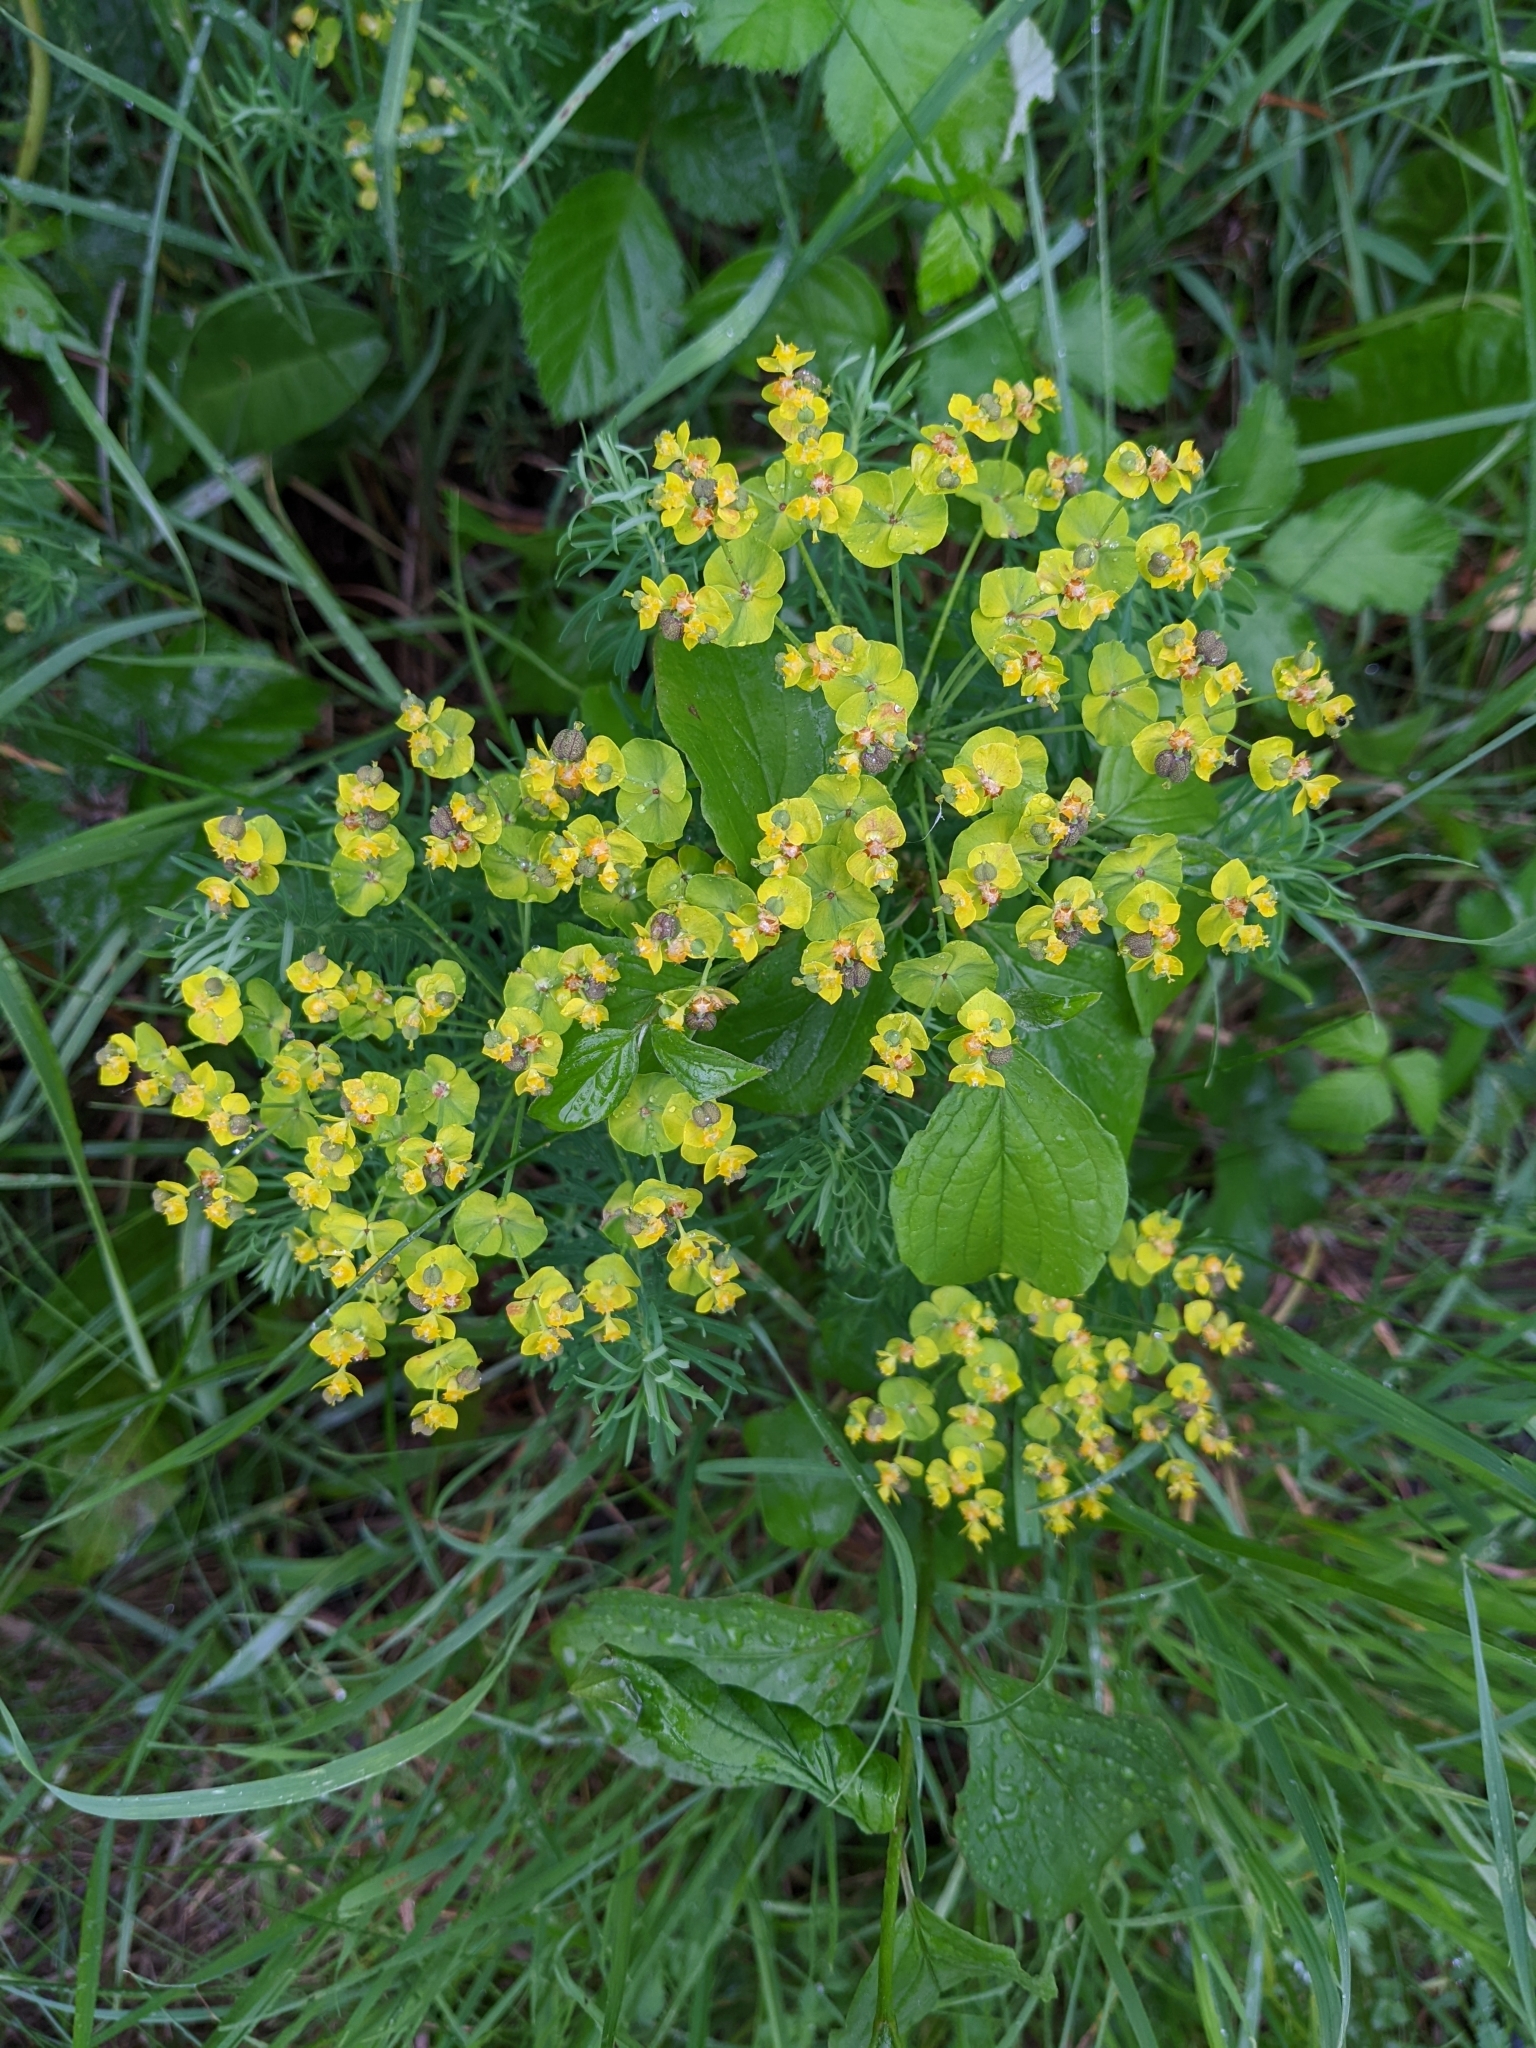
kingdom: Plantae
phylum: Tracheophyta
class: Magnoliopsida
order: Malpighiales
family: Euphorbiaceae
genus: Euphorbia
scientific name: Euphorbia cyparissias
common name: Cypress spurge
